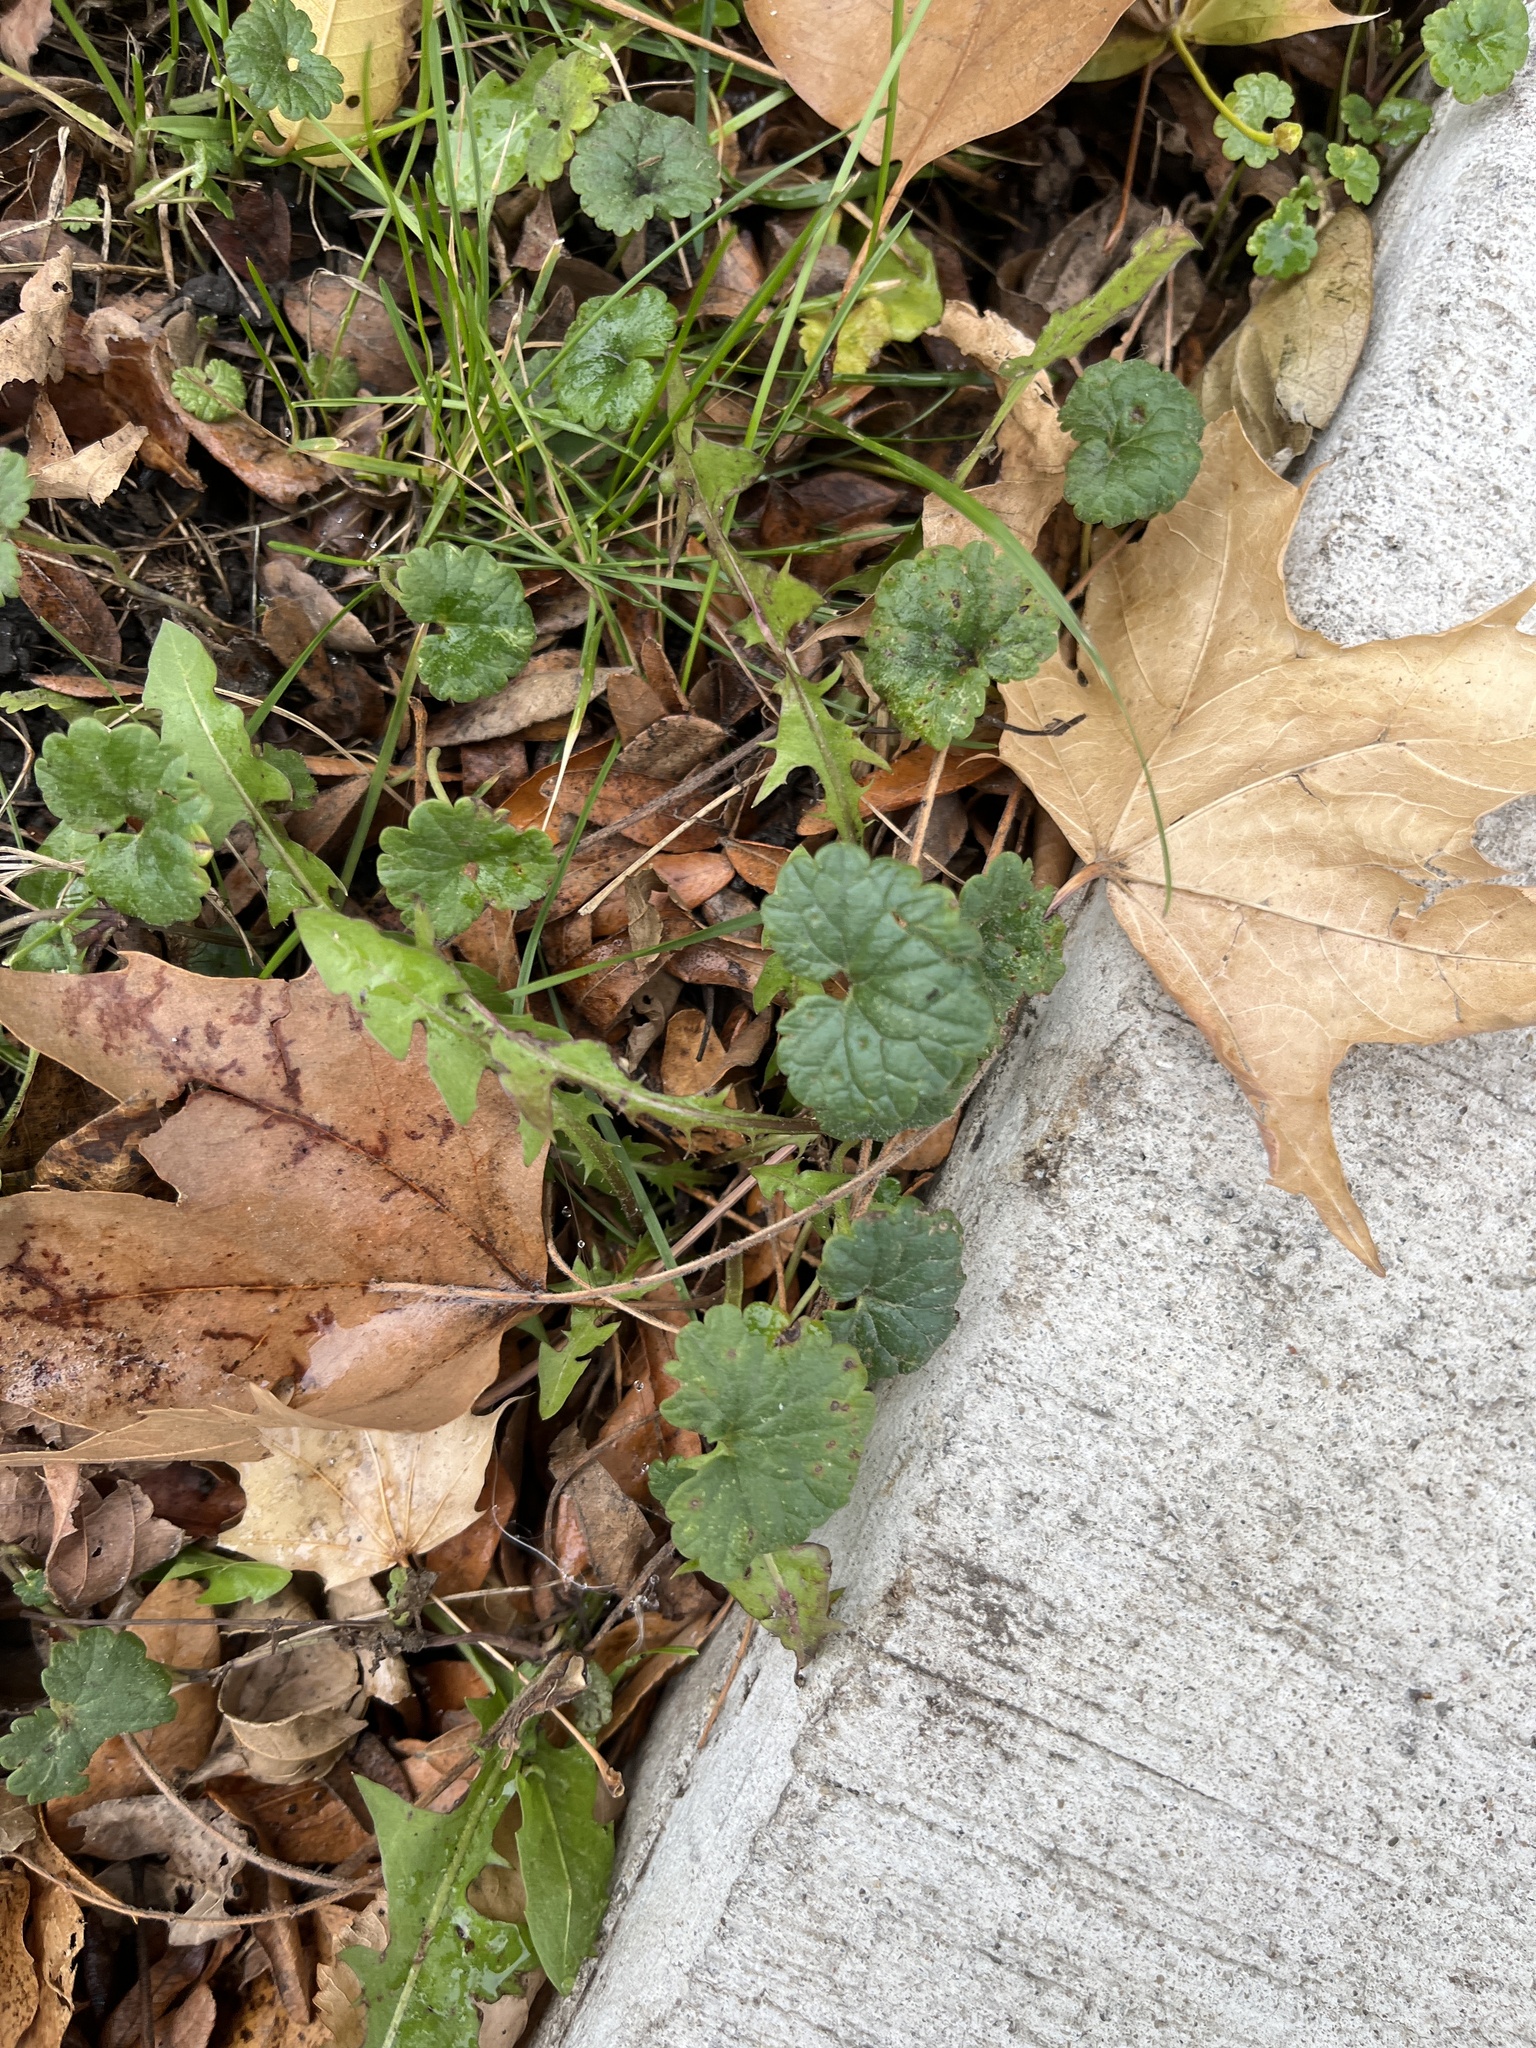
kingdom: Plantae
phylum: Tracheophyta
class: Magnoliopsida
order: Lamiales
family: Lamiaceae
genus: Glechoma
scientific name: Glechoma hederacea
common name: Ground ivy
